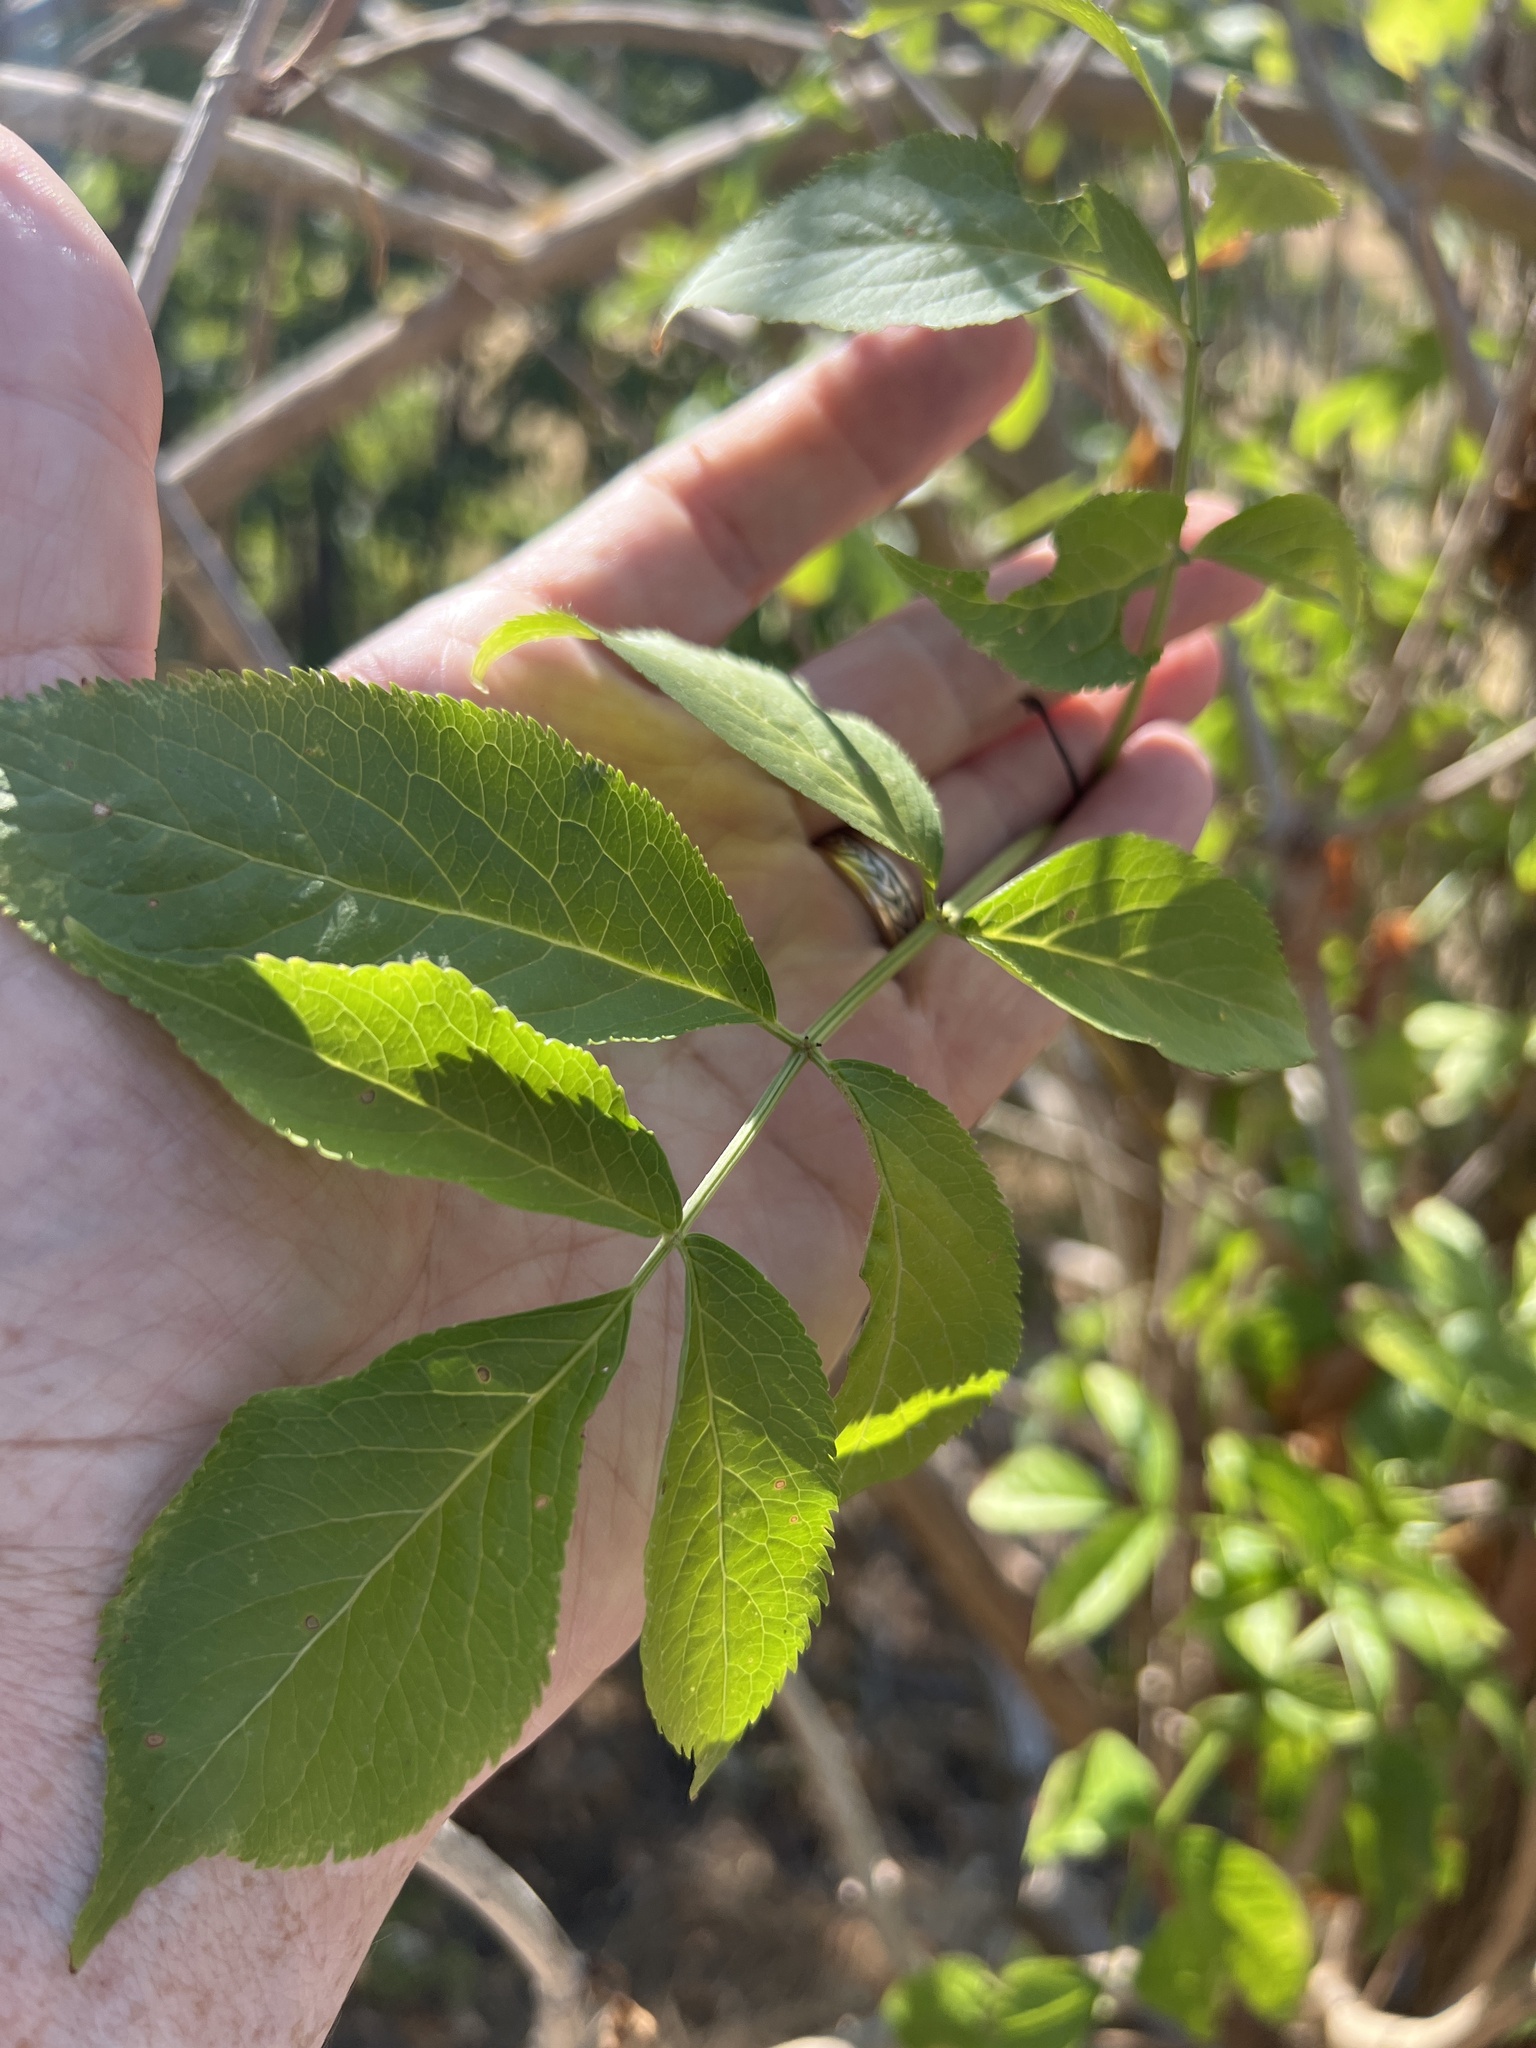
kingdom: Plantae
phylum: Tracheophyta
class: Magnoliopsida
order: Dipsacales
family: Viburnaceae
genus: Sambucus
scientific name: Sambucus nigra
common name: Elder
